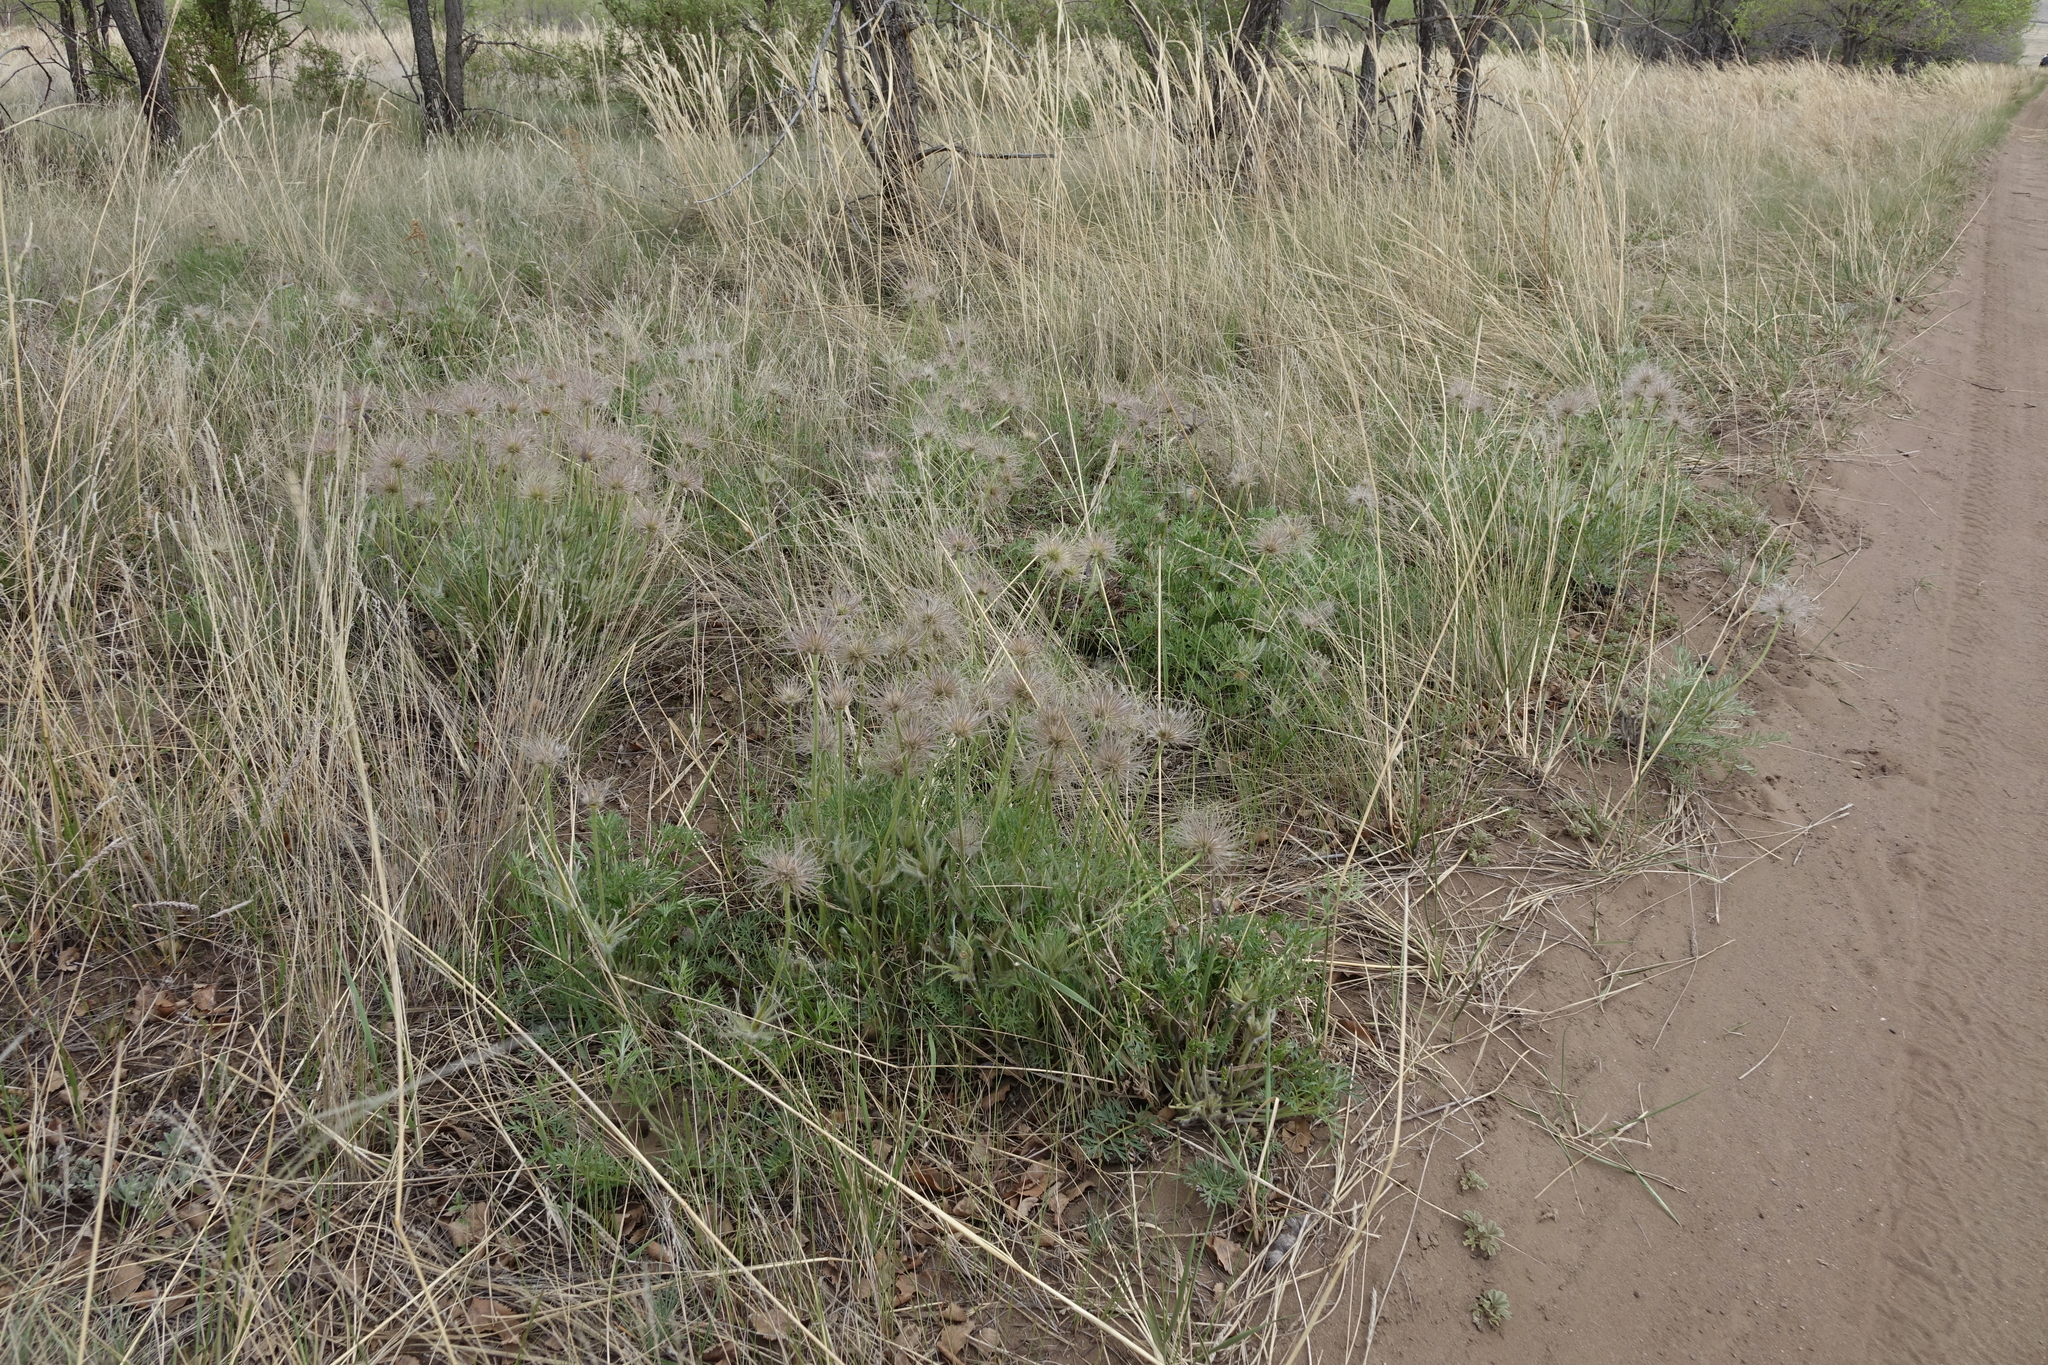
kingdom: Plantae
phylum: Tracheophyta
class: Magnoliopsida
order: Ranunculales
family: Ranunculaceae
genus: Pulsatilla
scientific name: Pulsatilla turczaninovii
